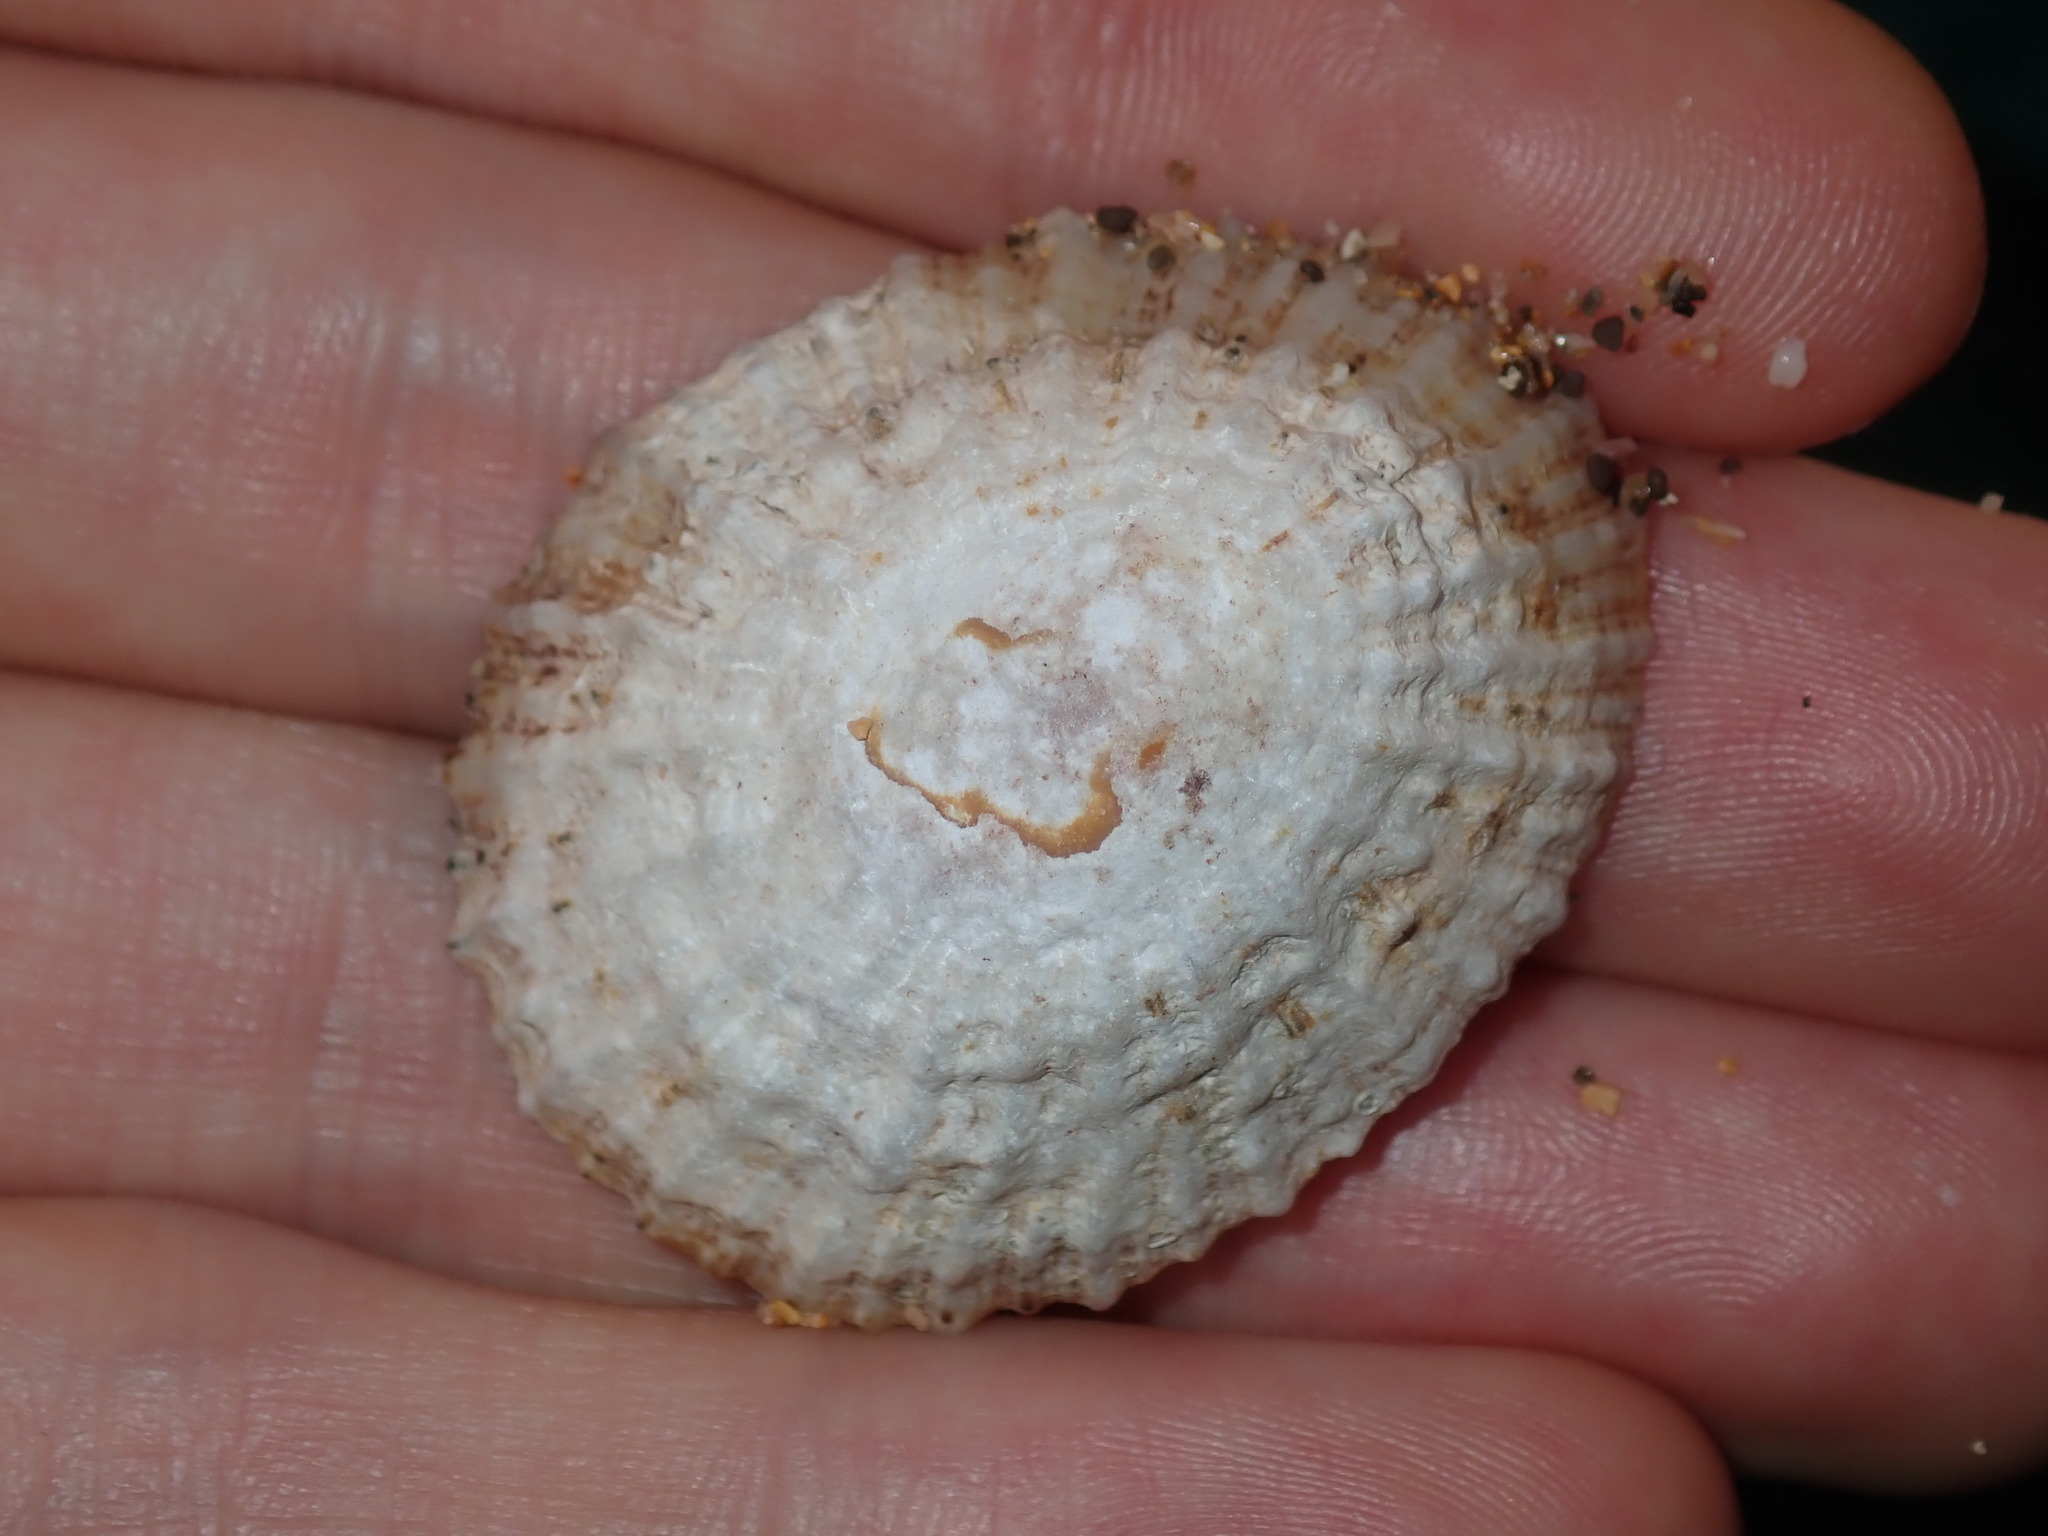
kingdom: Animalia
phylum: Mollusca
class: Gastropoda
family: Patellidae
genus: Scutellastra
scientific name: Scutellastra peronii
